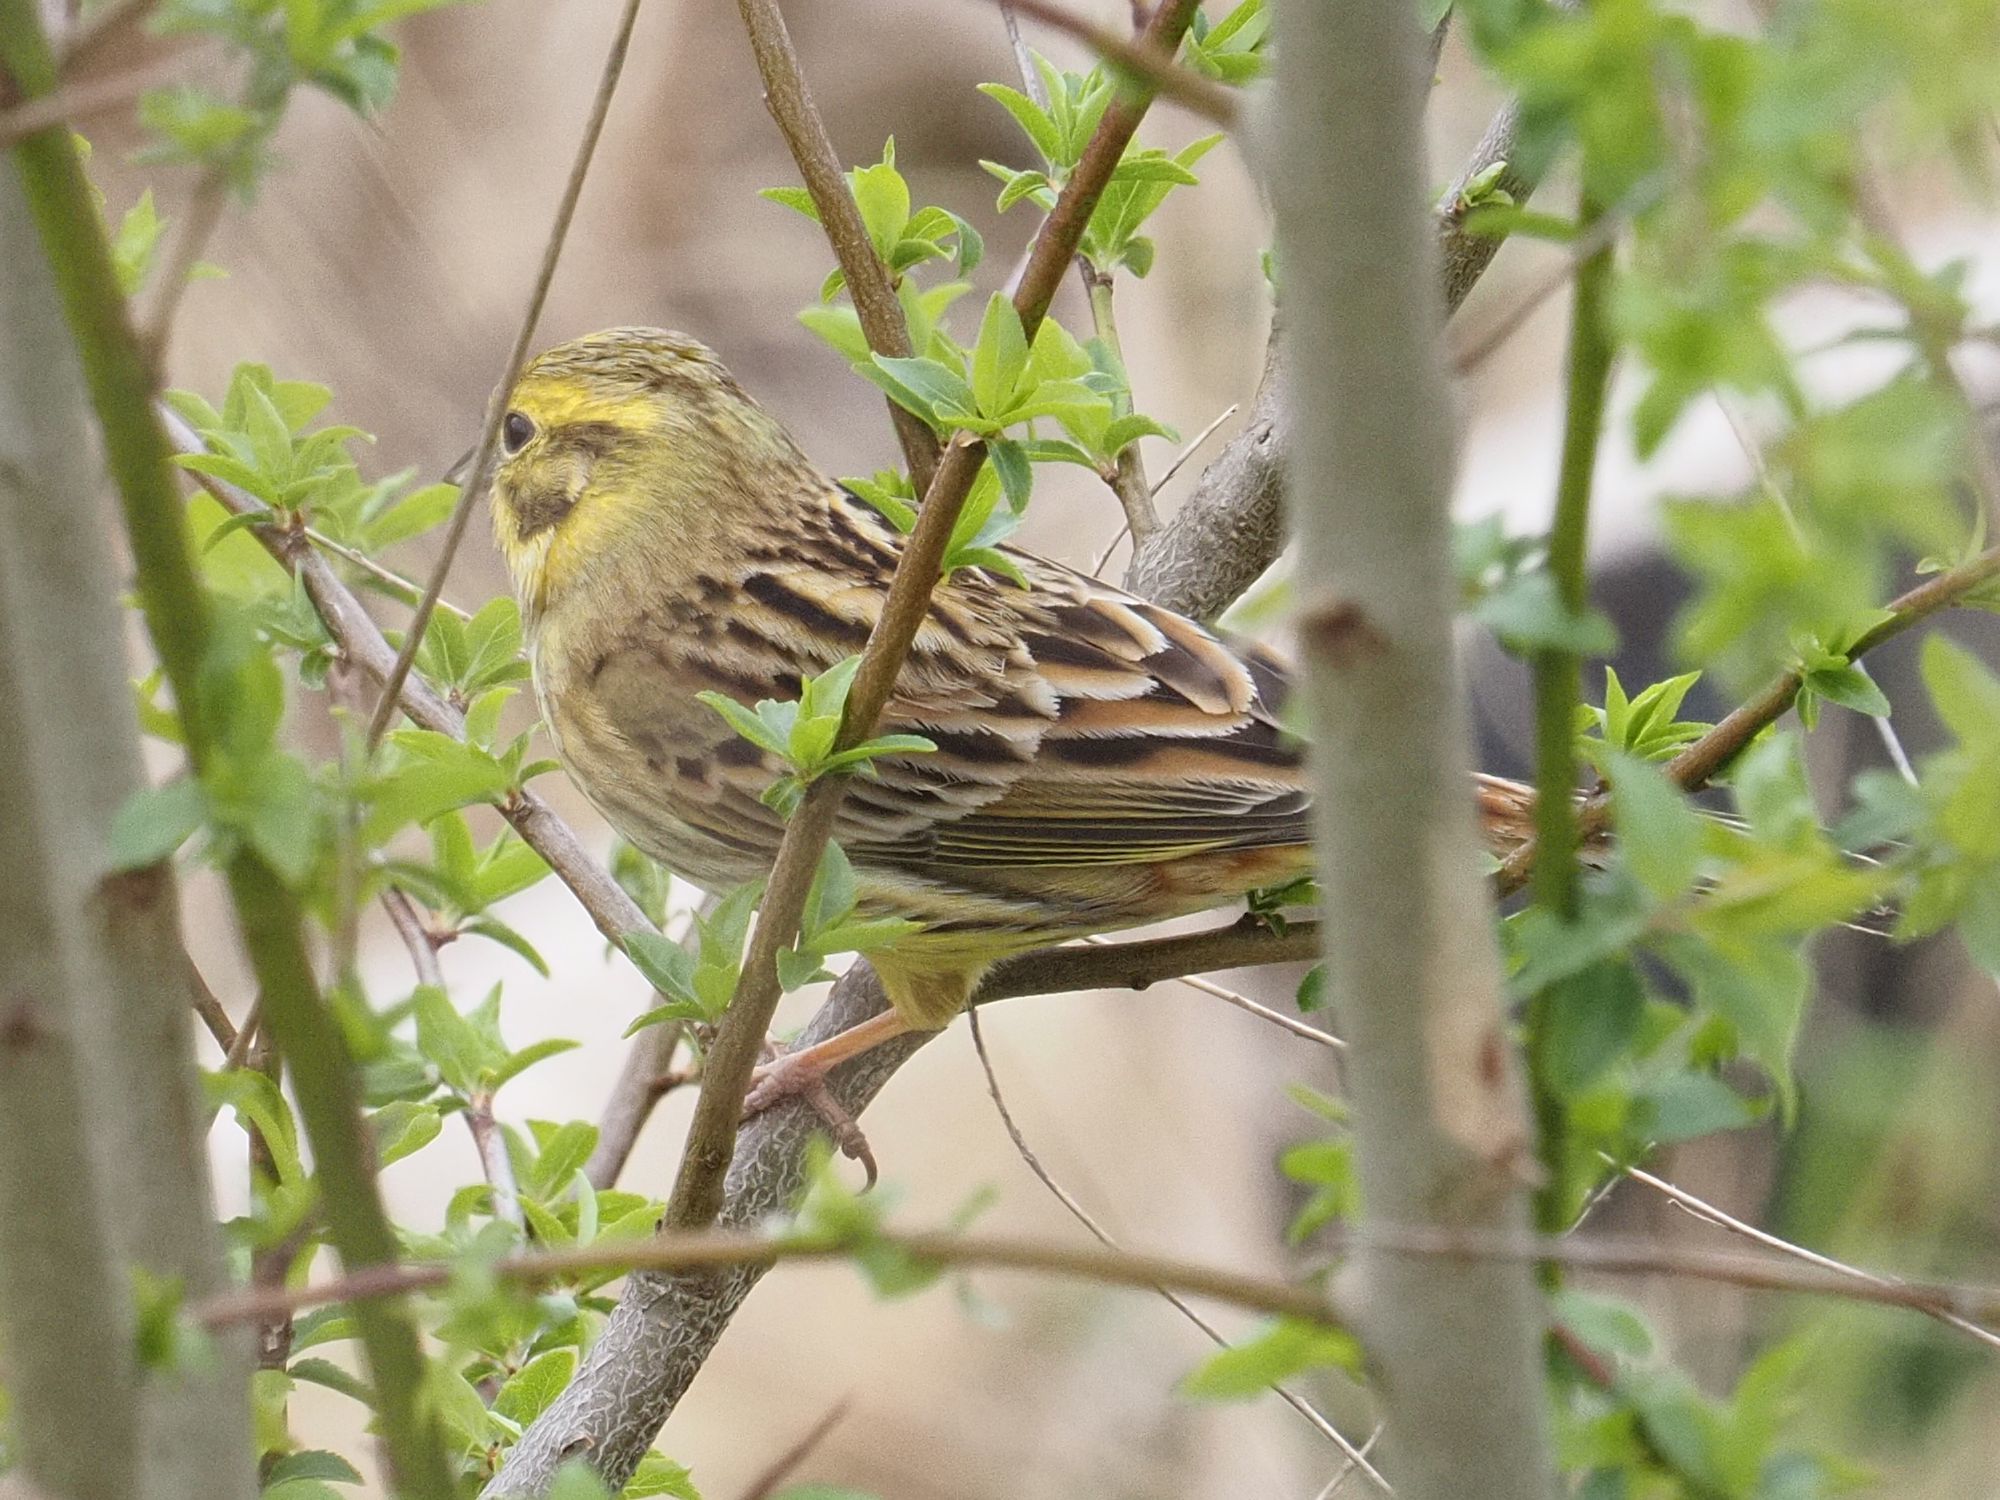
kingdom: Animalia
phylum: Chordata
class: Aves
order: Passeriformes
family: Emberizidae
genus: Emberiza
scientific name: Emberiza citrinella
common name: Yellowhammer
